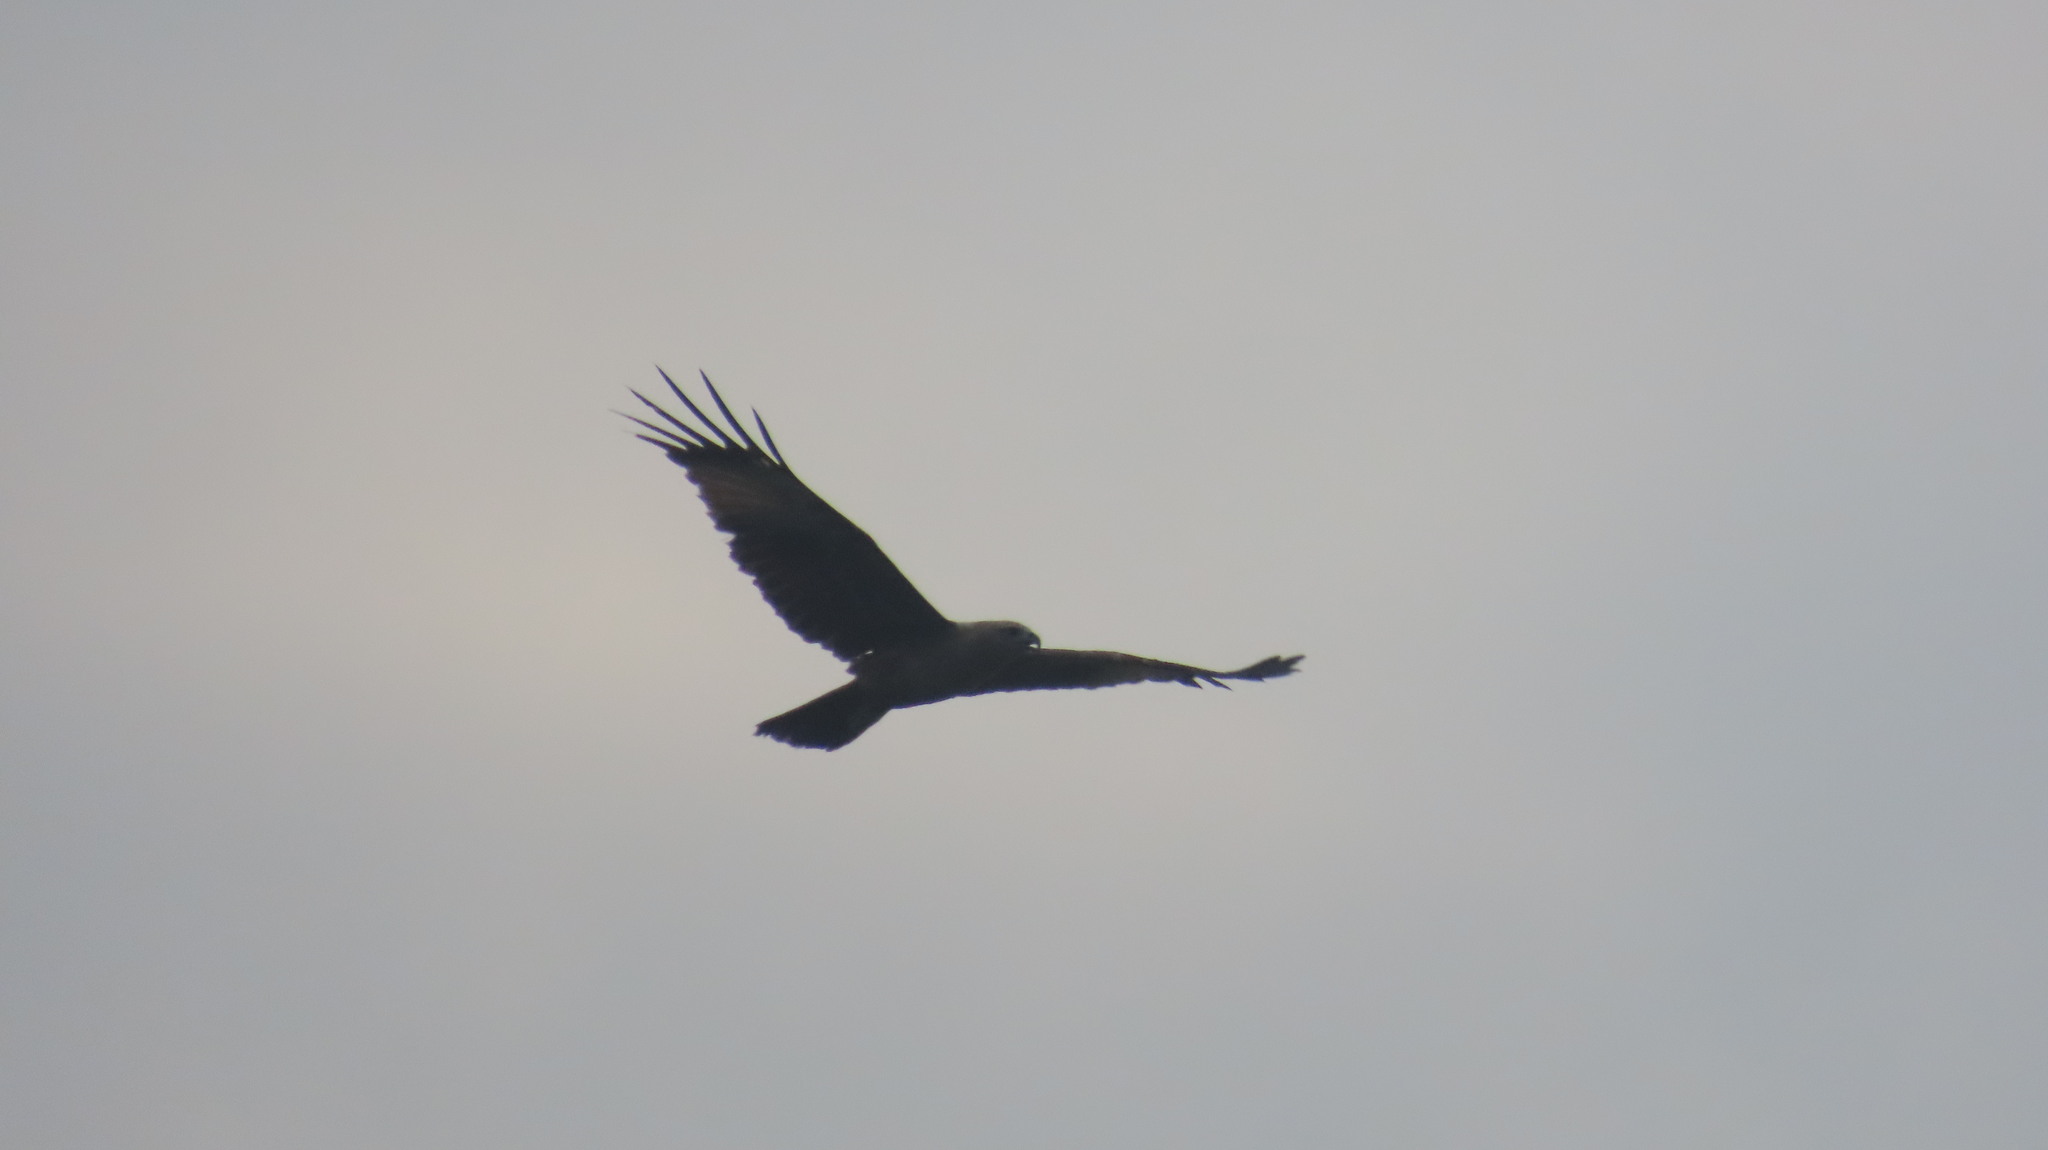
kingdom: Animalia
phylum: Chordata
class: Aves
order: Accipitriformes
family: Accipitridae
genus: Haliastur
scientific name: Haliastur indus
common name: Brahminy kite
